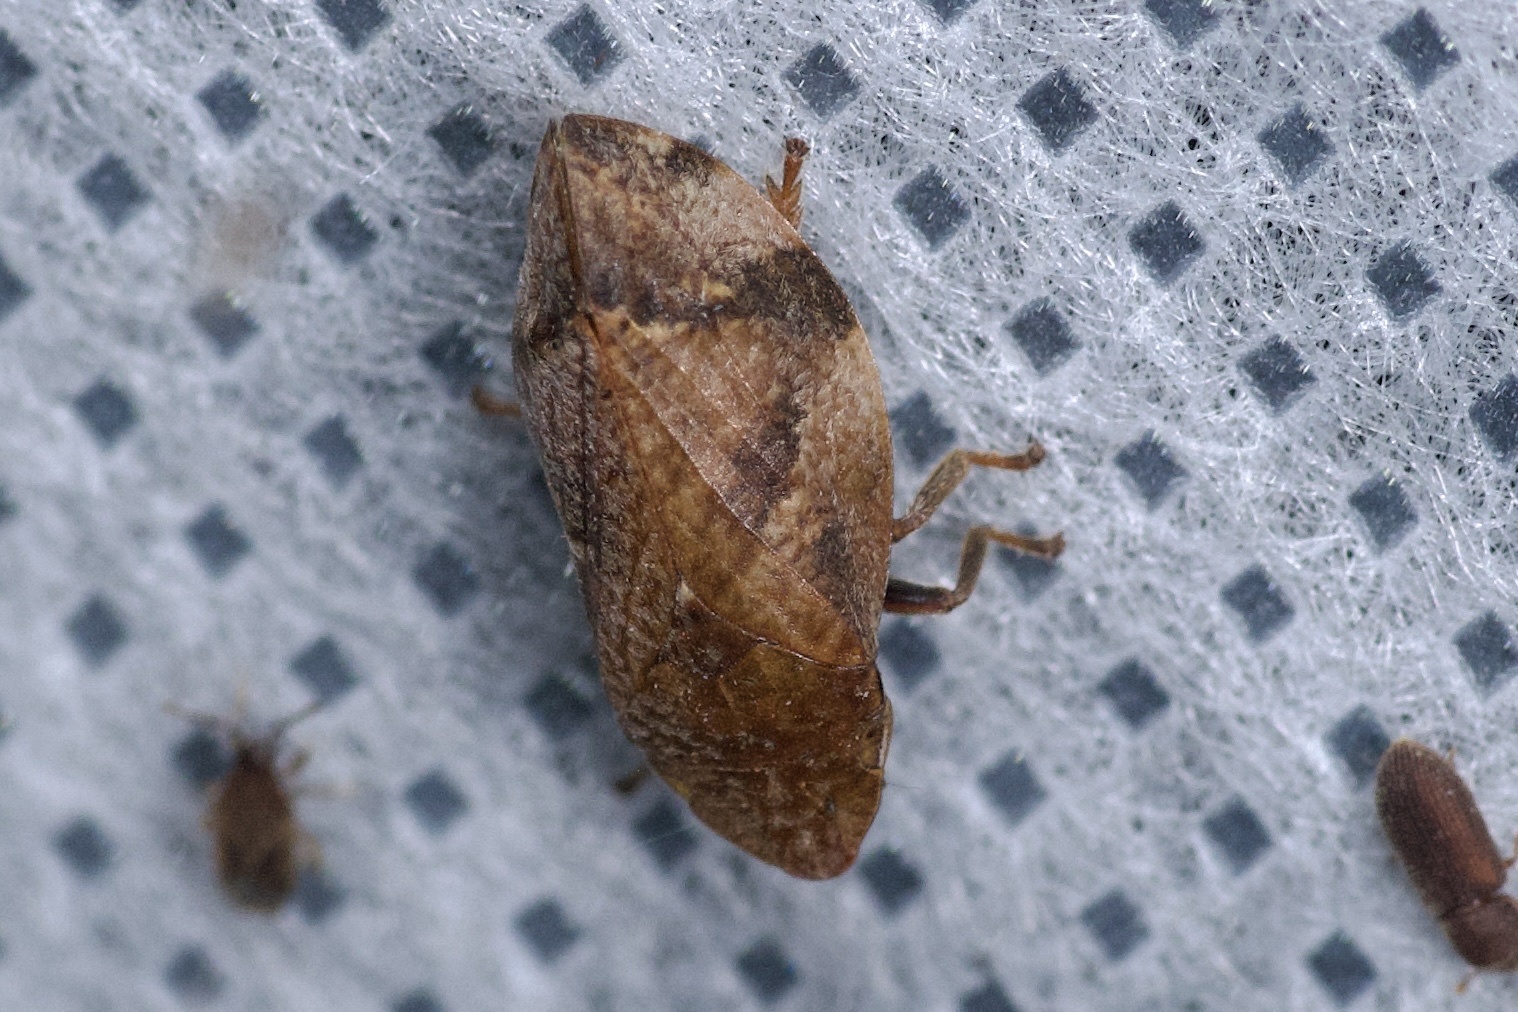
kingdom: Animalia
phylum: Arthropoda
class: Insecta
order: Hemiptera
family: Aphrophoridae
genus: Lepyronia
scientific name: Lepyronia quadrangularis
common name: Diamond-backed spittlebug
